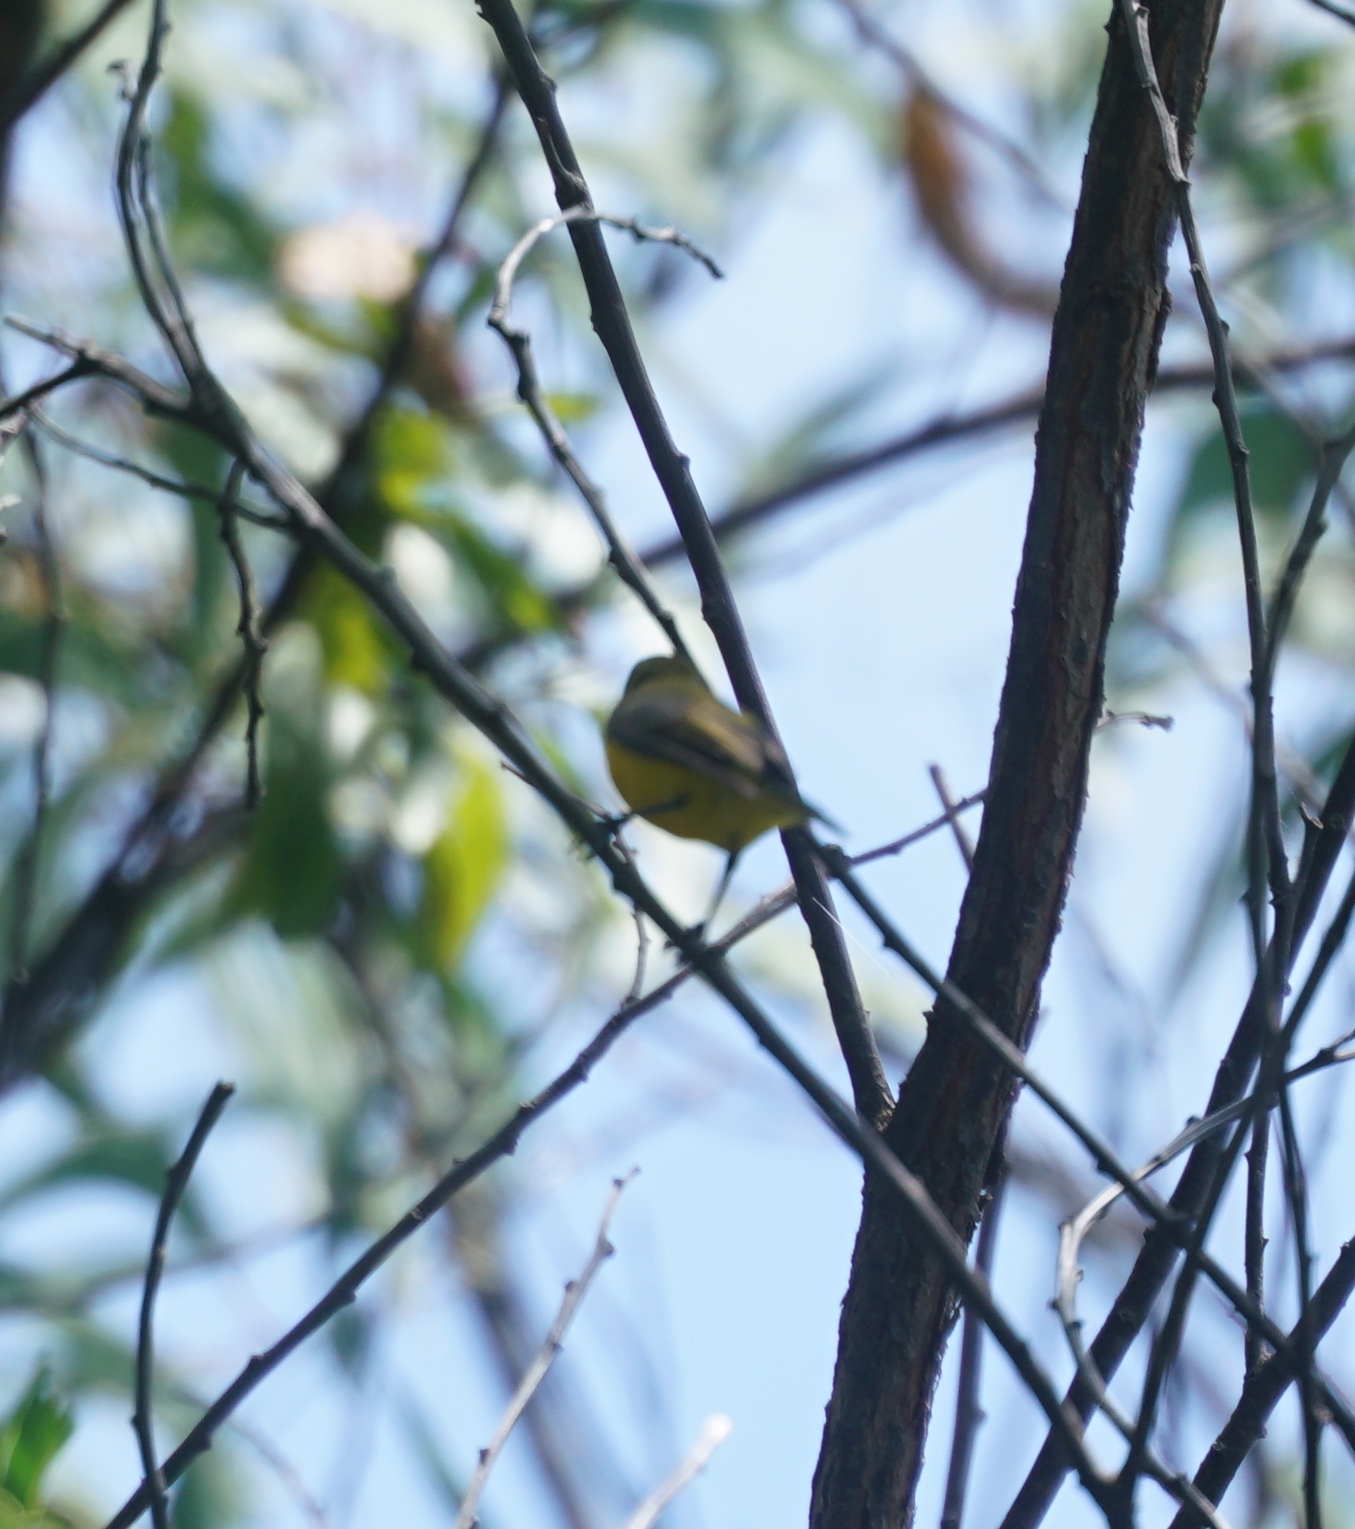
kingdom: Animalia
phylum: Chordata
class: Aves
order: Passeriformes
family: Nectariniidae
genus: Cinnyris
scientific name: Cinnyris
